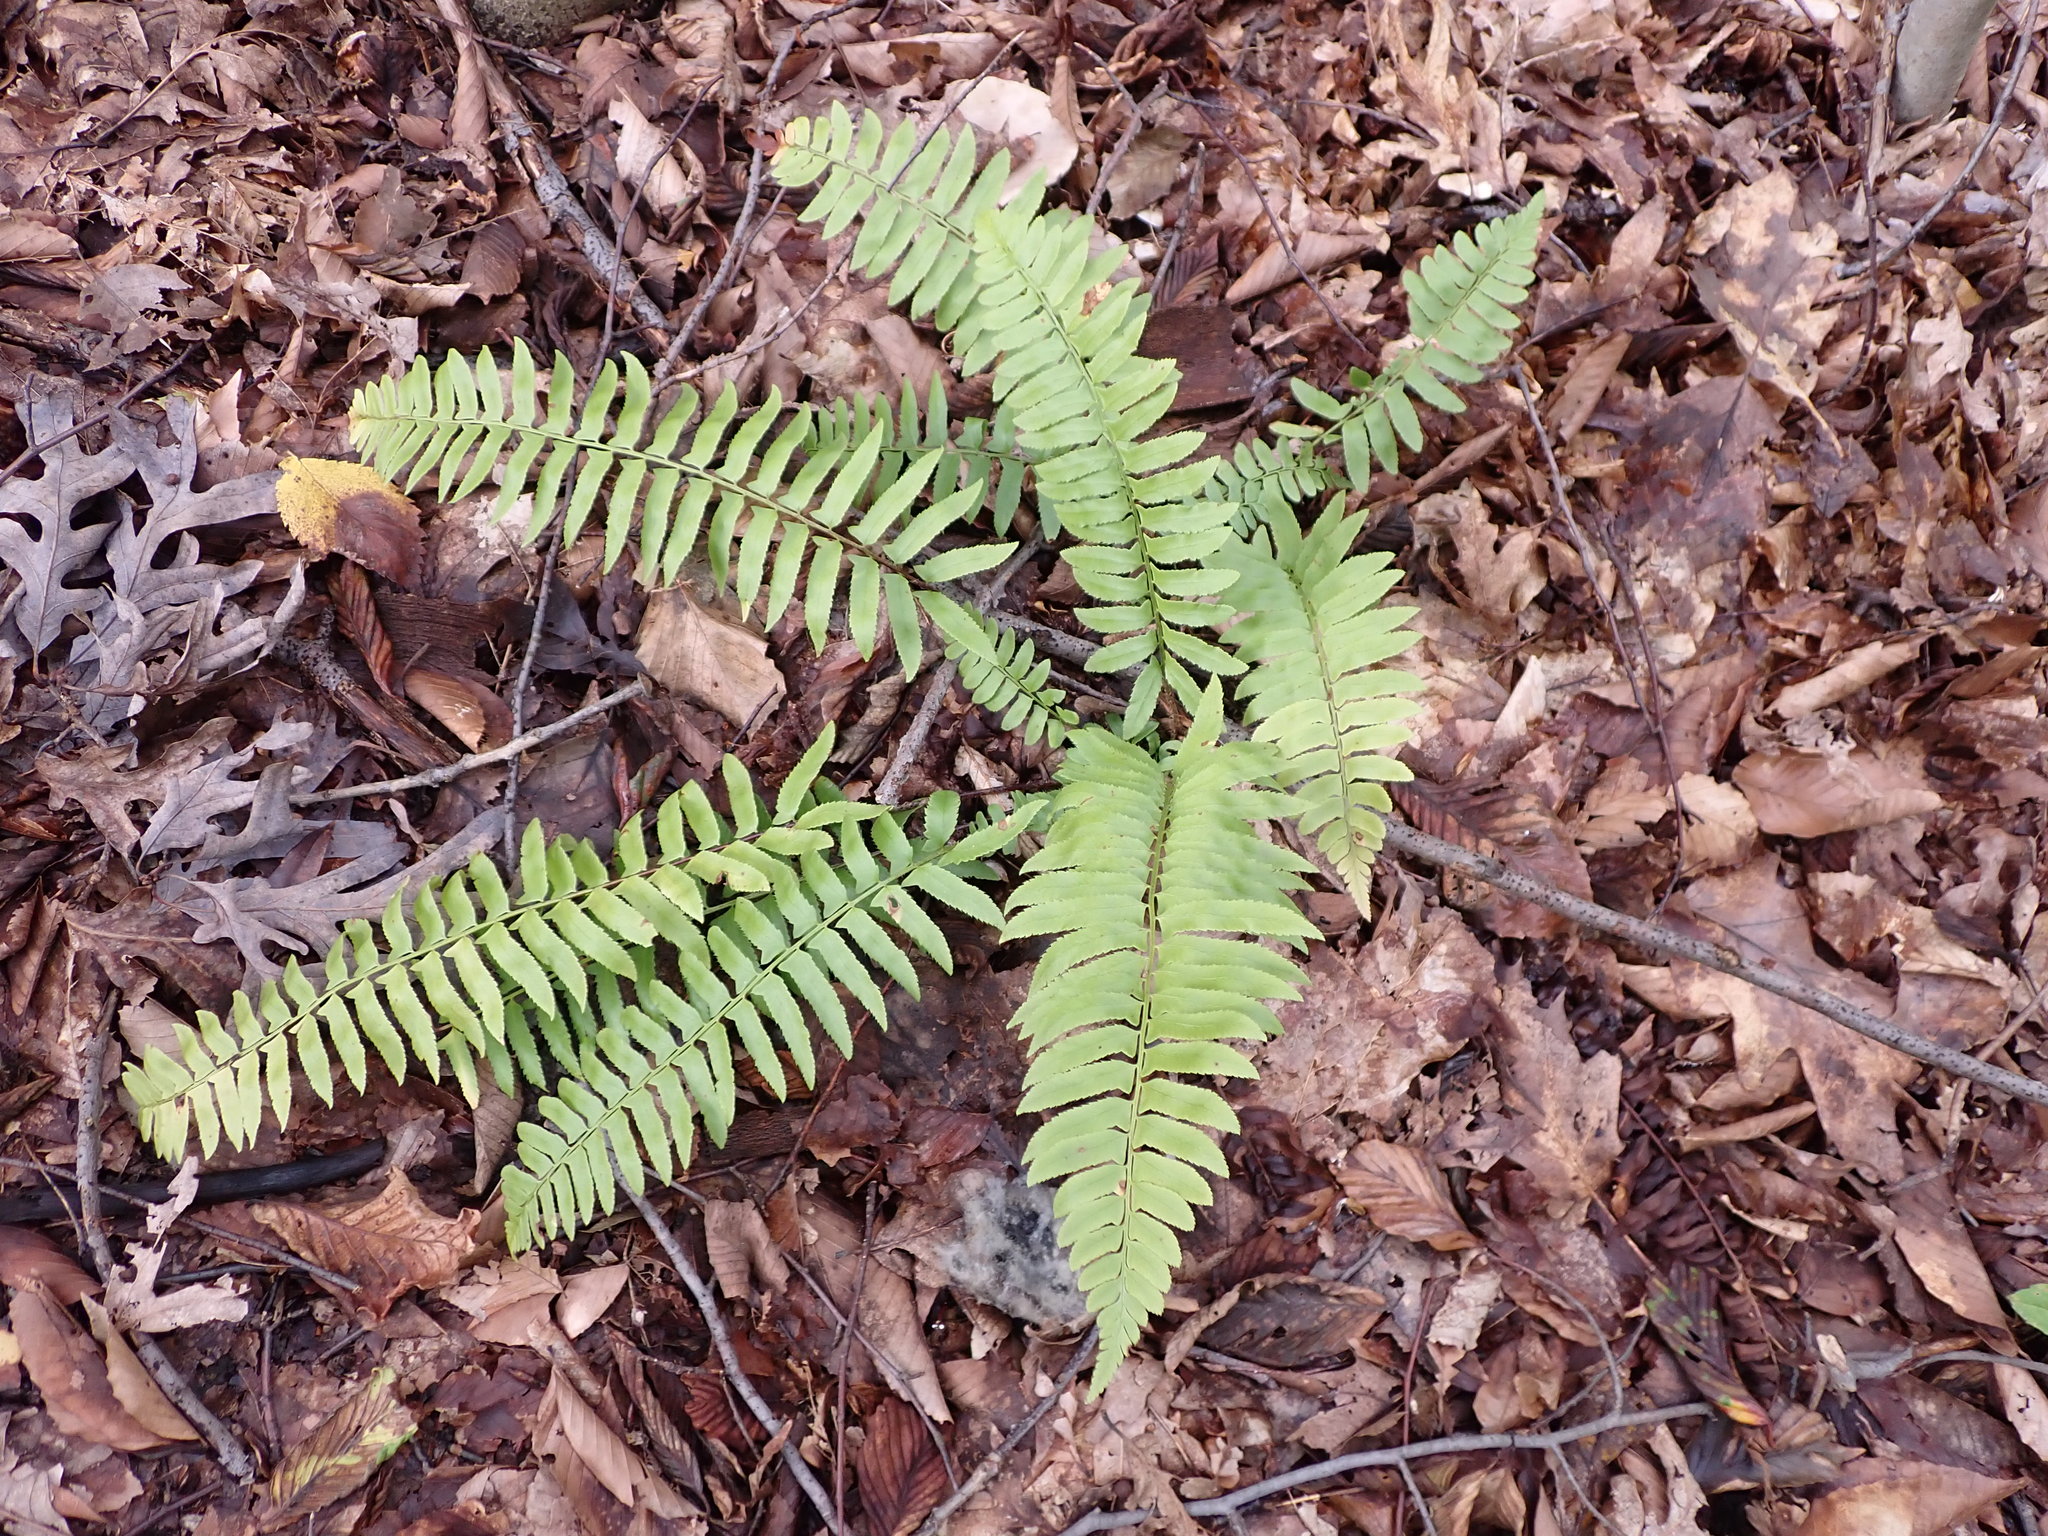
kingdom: Plantae
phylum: Tracheophyta
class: Polypodiopsida
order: Polypodiales
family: Dryopteridaceae
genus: Polystichum
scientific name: Polystichum acrostichoides
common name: Christmas fern
